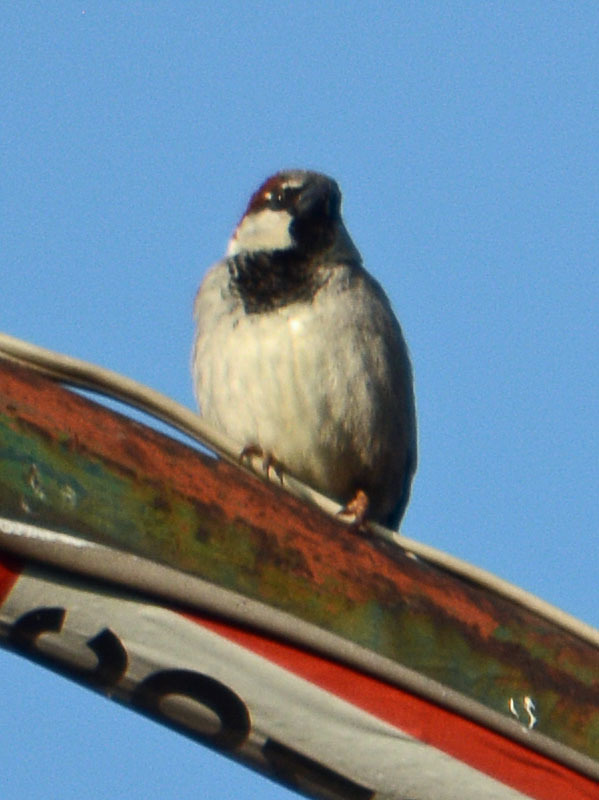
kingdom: Animalia
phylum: Chordata
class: Aves
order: Passeriformes
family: Passeridae
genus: Passer
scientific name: Passer domesticus
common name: House sparrow
